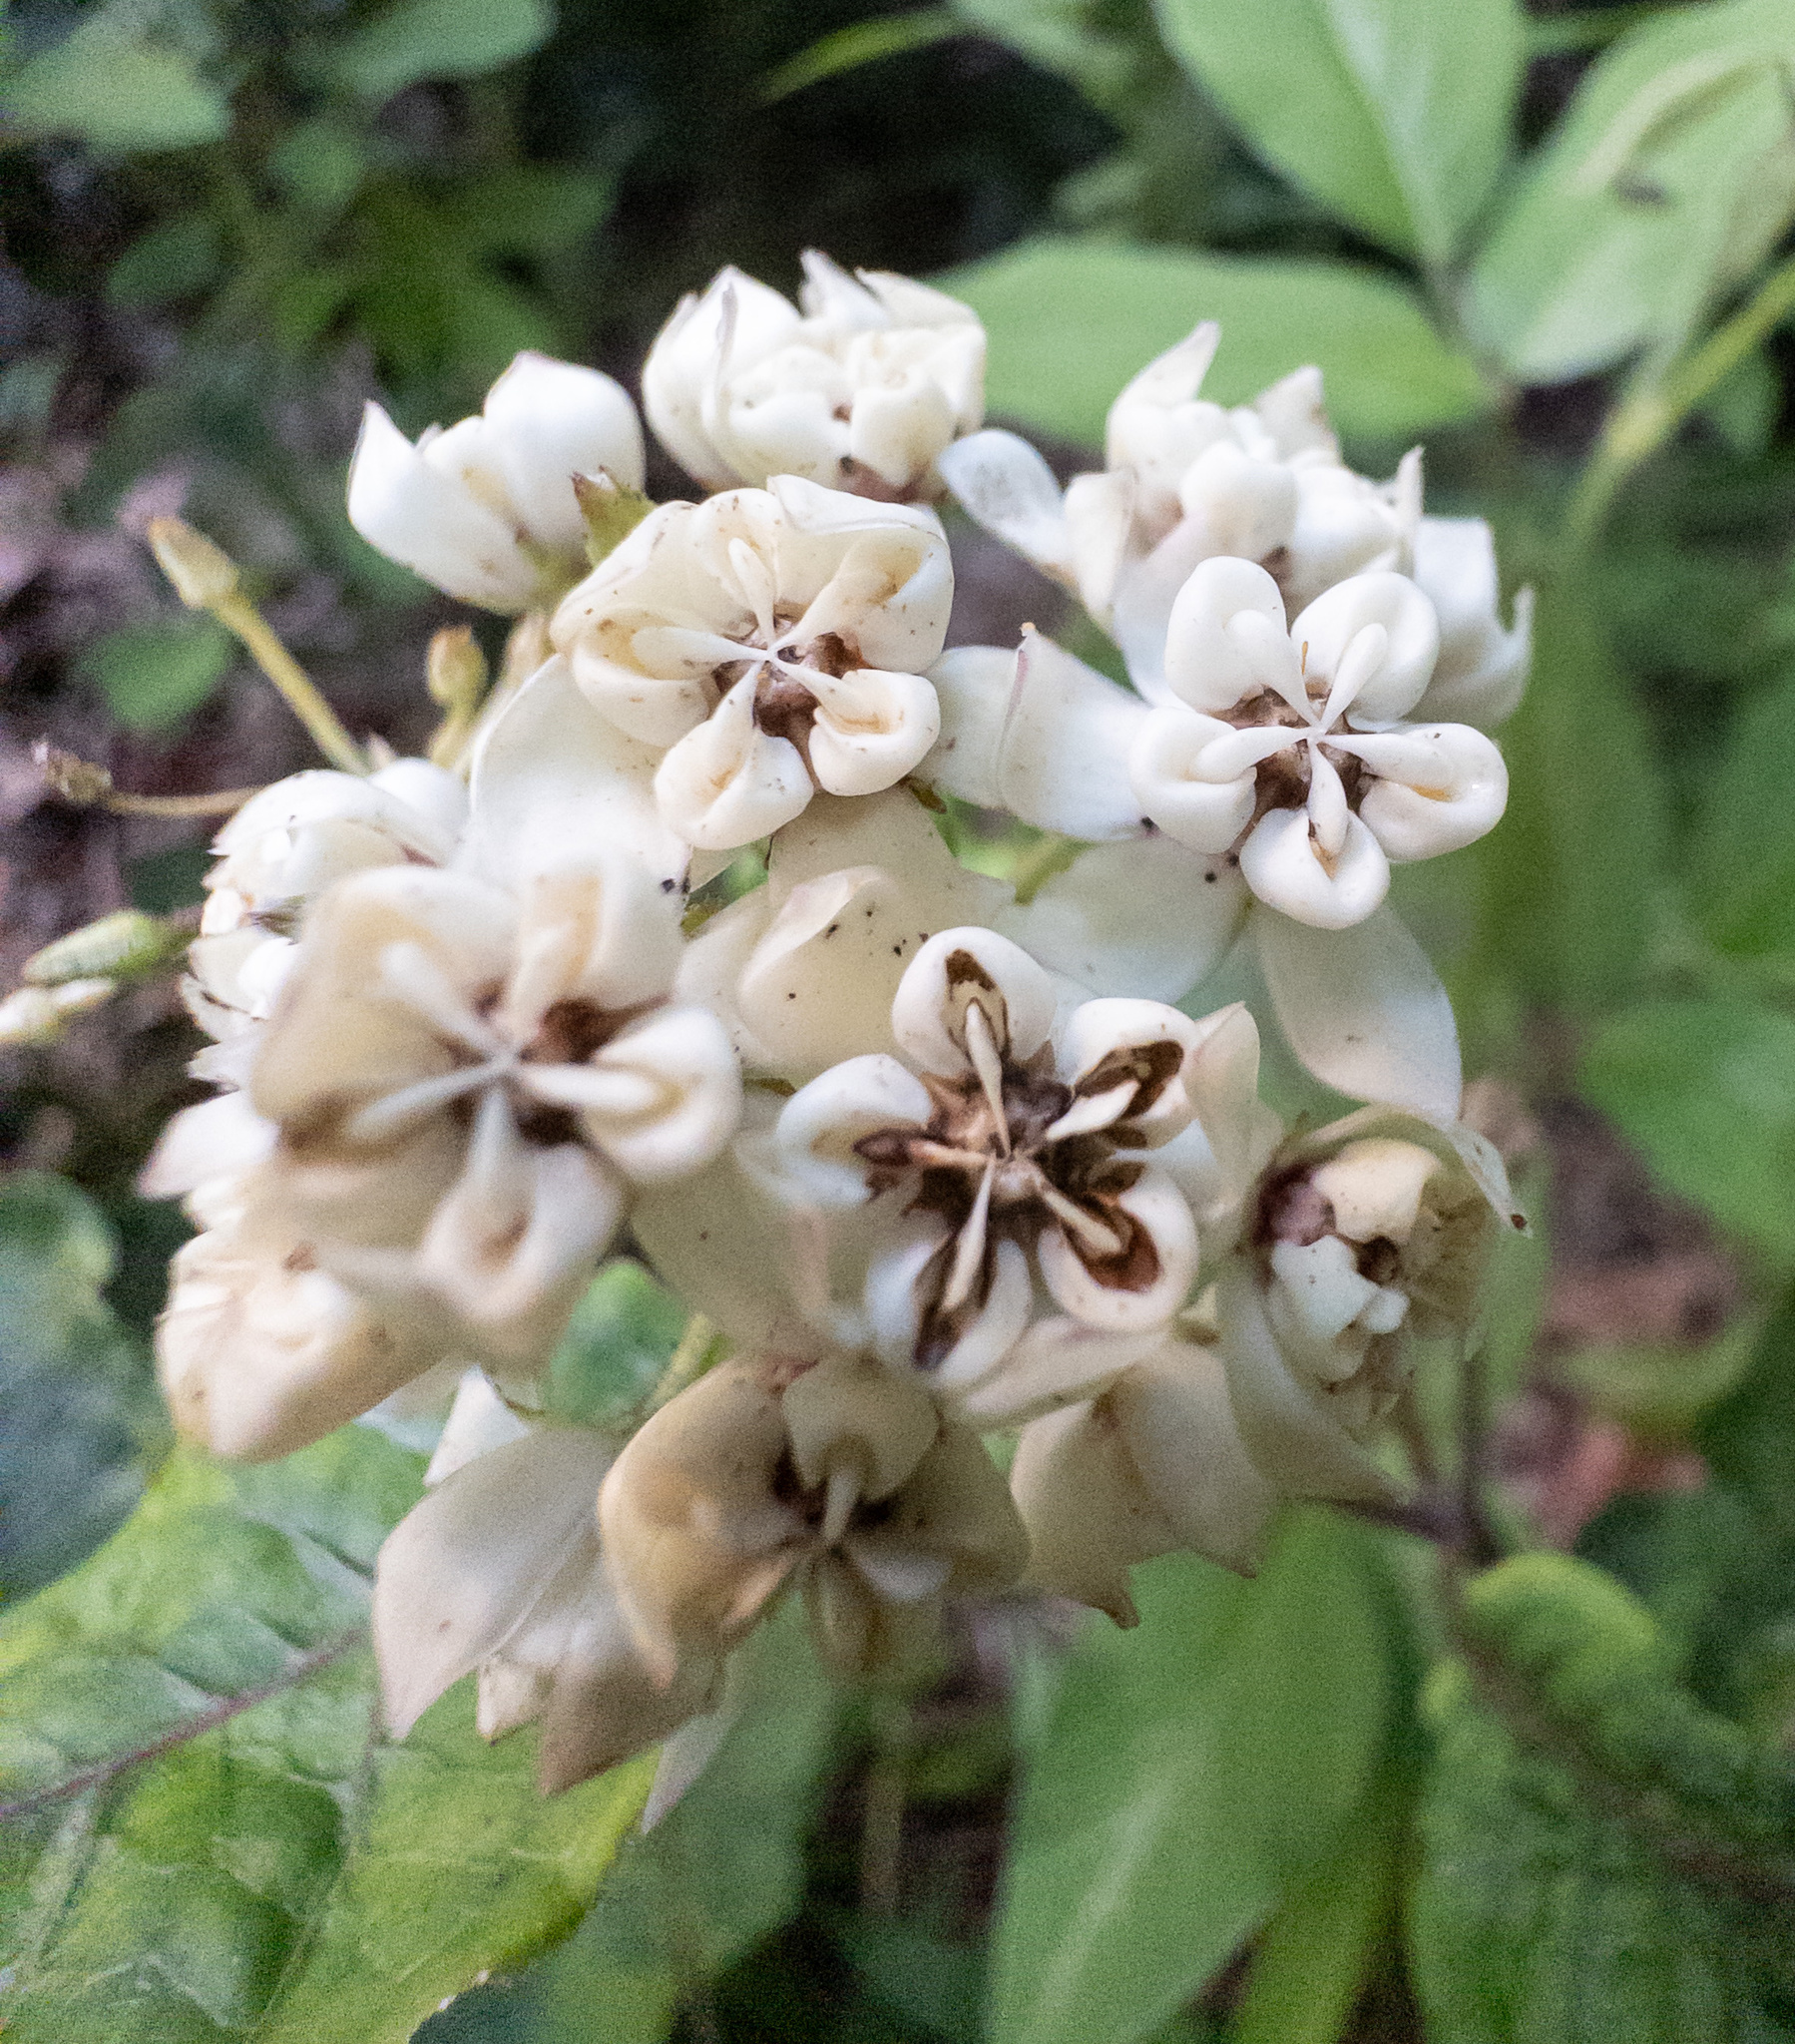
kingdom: Plantae
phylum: Tracheophyta
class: Magnoliopsida
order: Gentianales
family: Apocynaceae
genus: Asclepias
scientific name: Asclepias variegata
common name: Variegated milkweed
